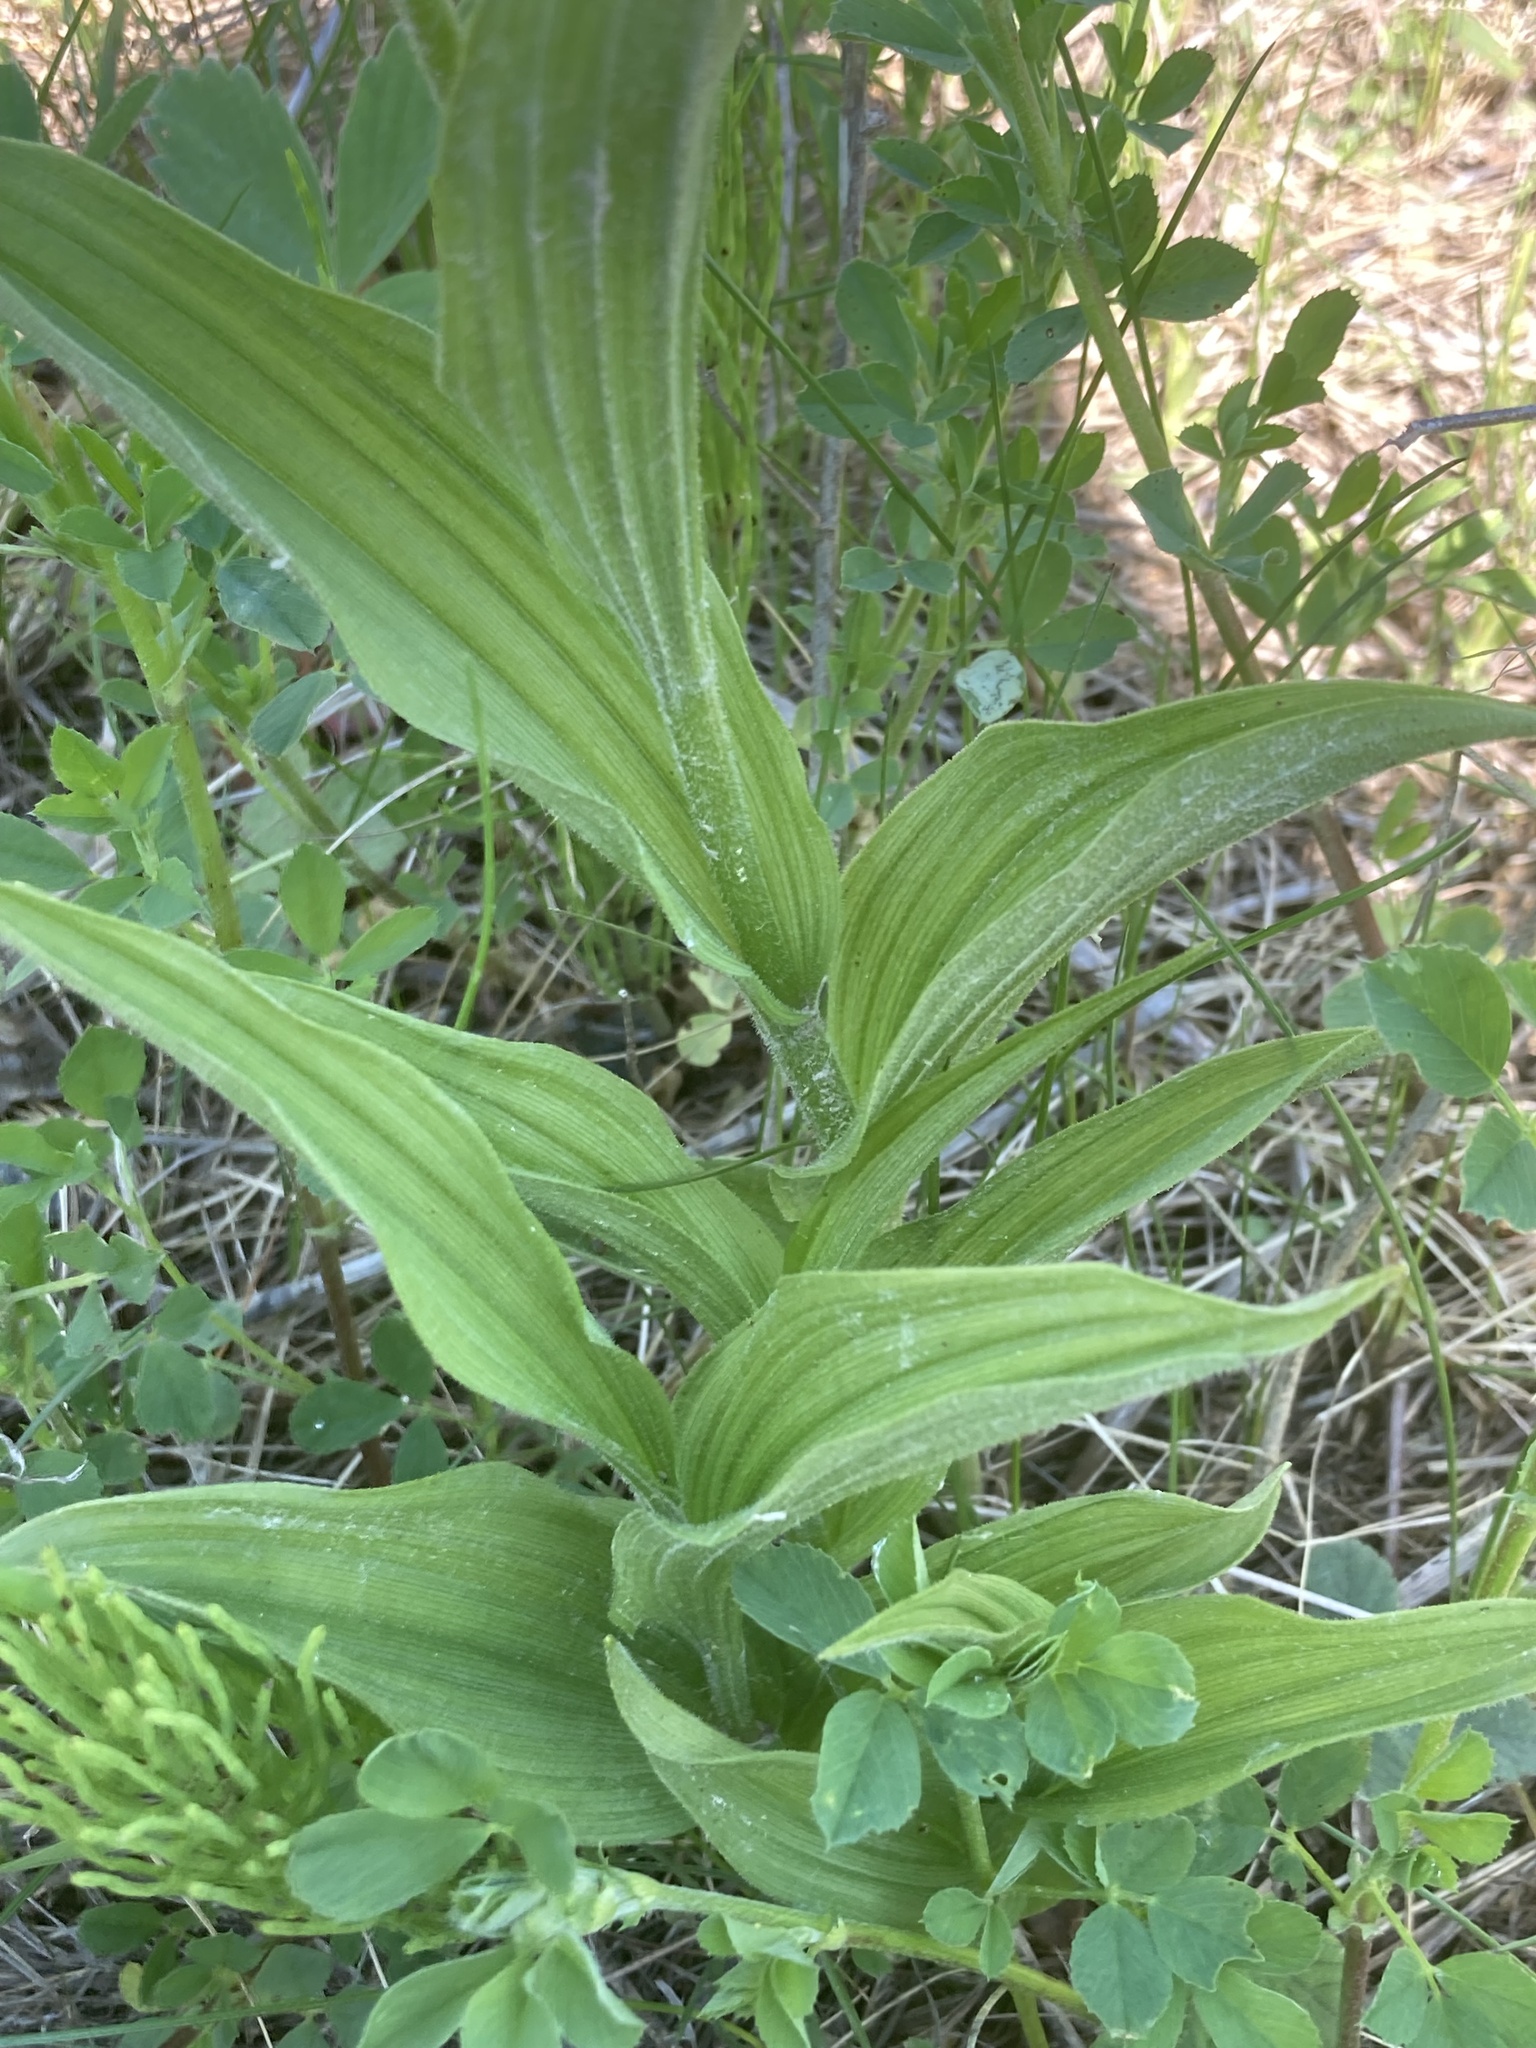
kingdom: Plantae
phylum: Tracheophyta
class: Liliopsida
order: Asparagales
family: Orchidaceae
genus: Cypripedium
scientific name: Cypripedium parviflorum
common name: American yellow lady's-slipper
